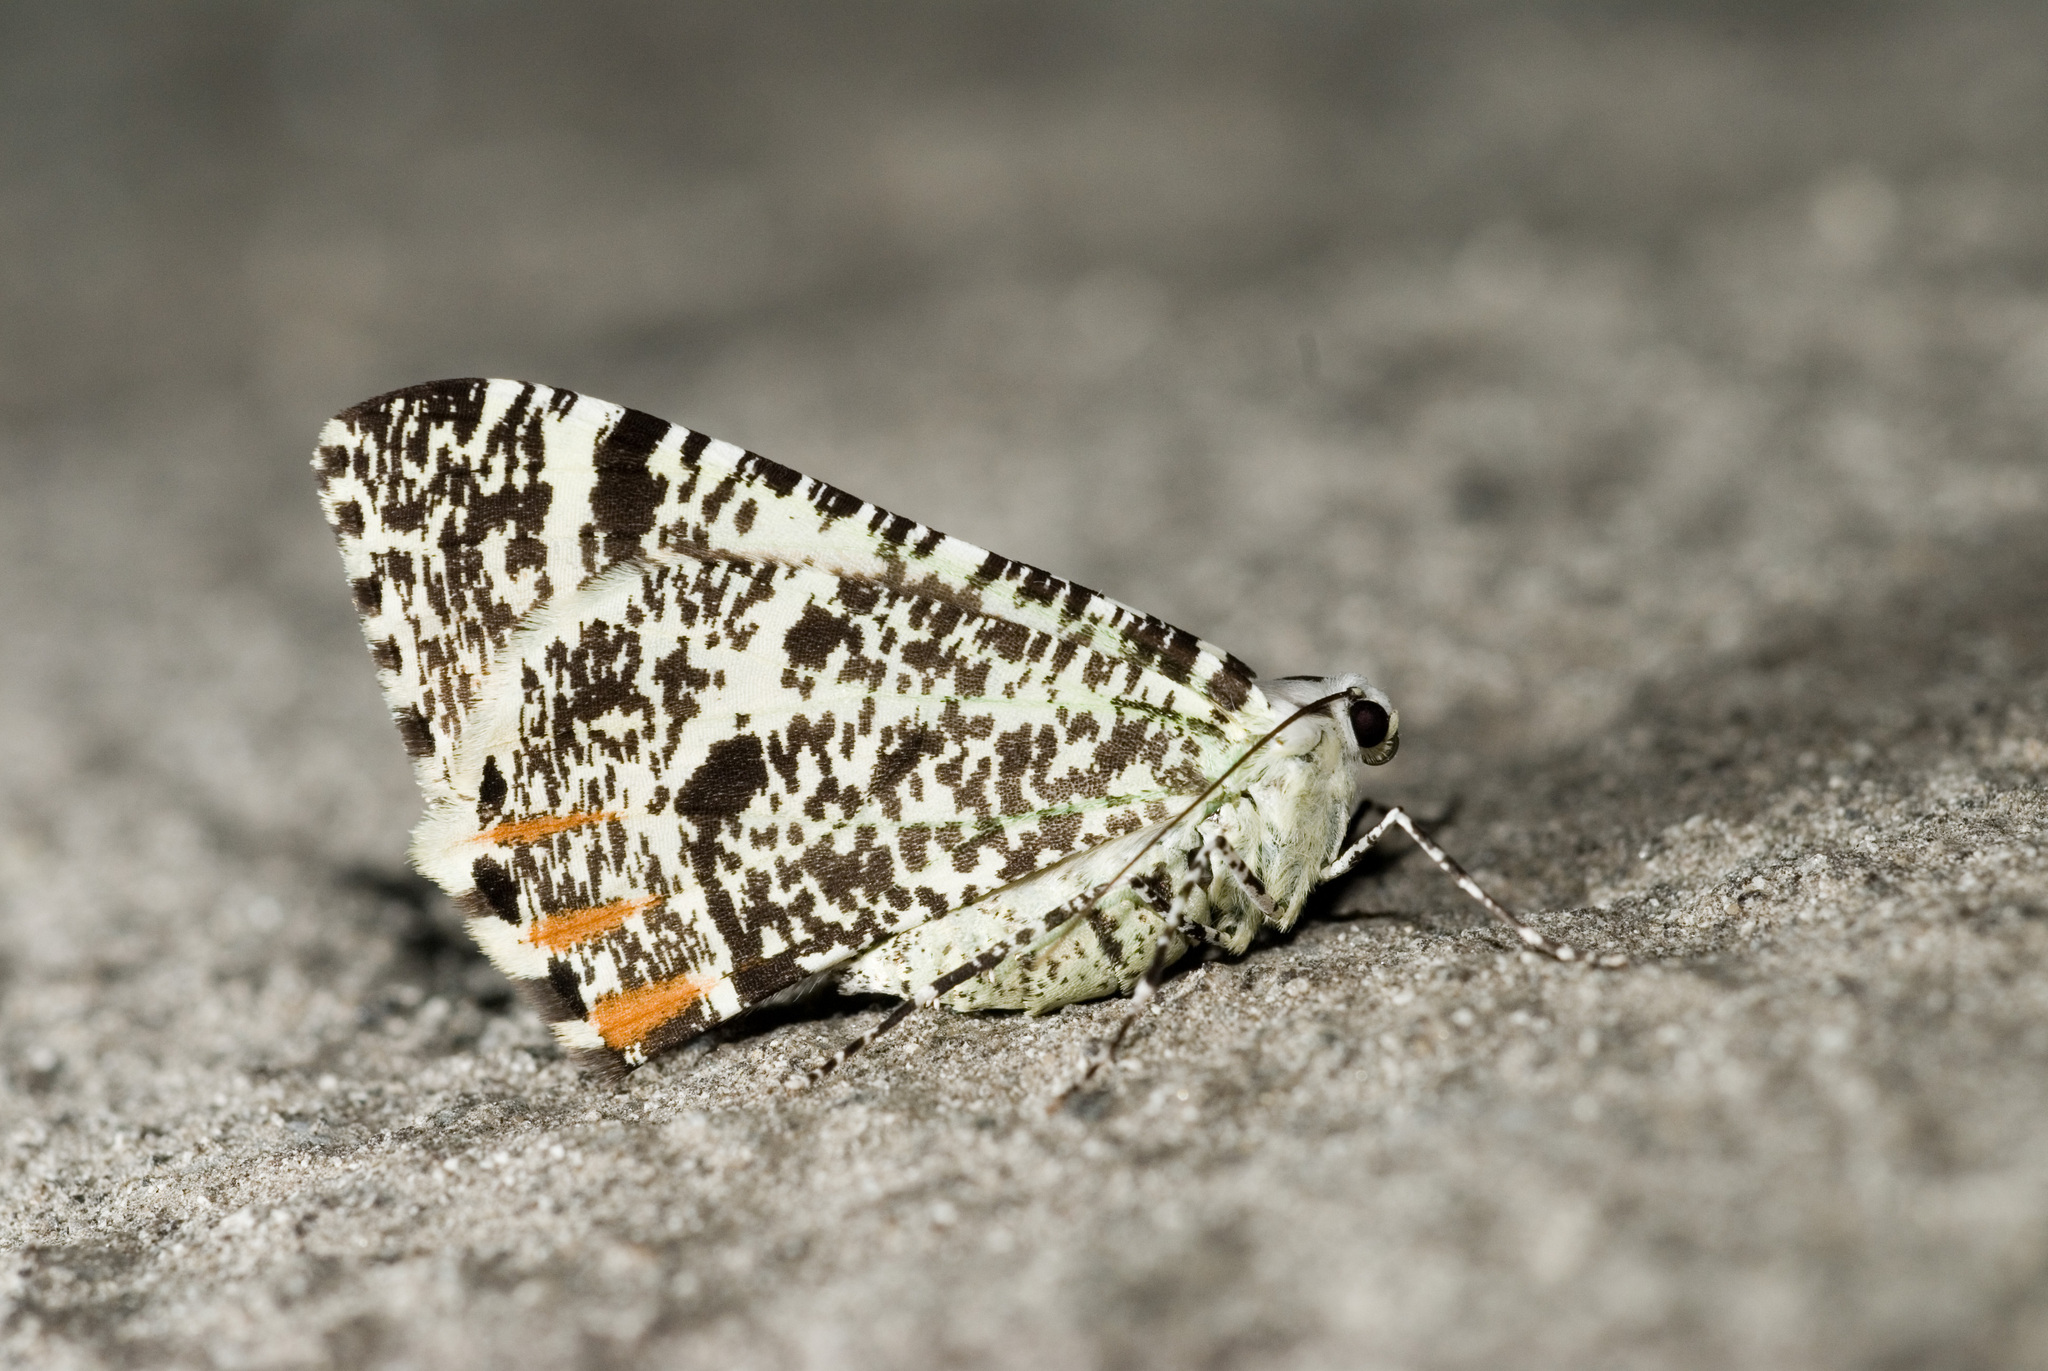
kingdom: Animalia
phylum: Arthropoda
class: Insecta
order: Lepidoptera
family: Geometridae
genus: Ourapteryx
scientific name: Ourapteryx flavovirens
